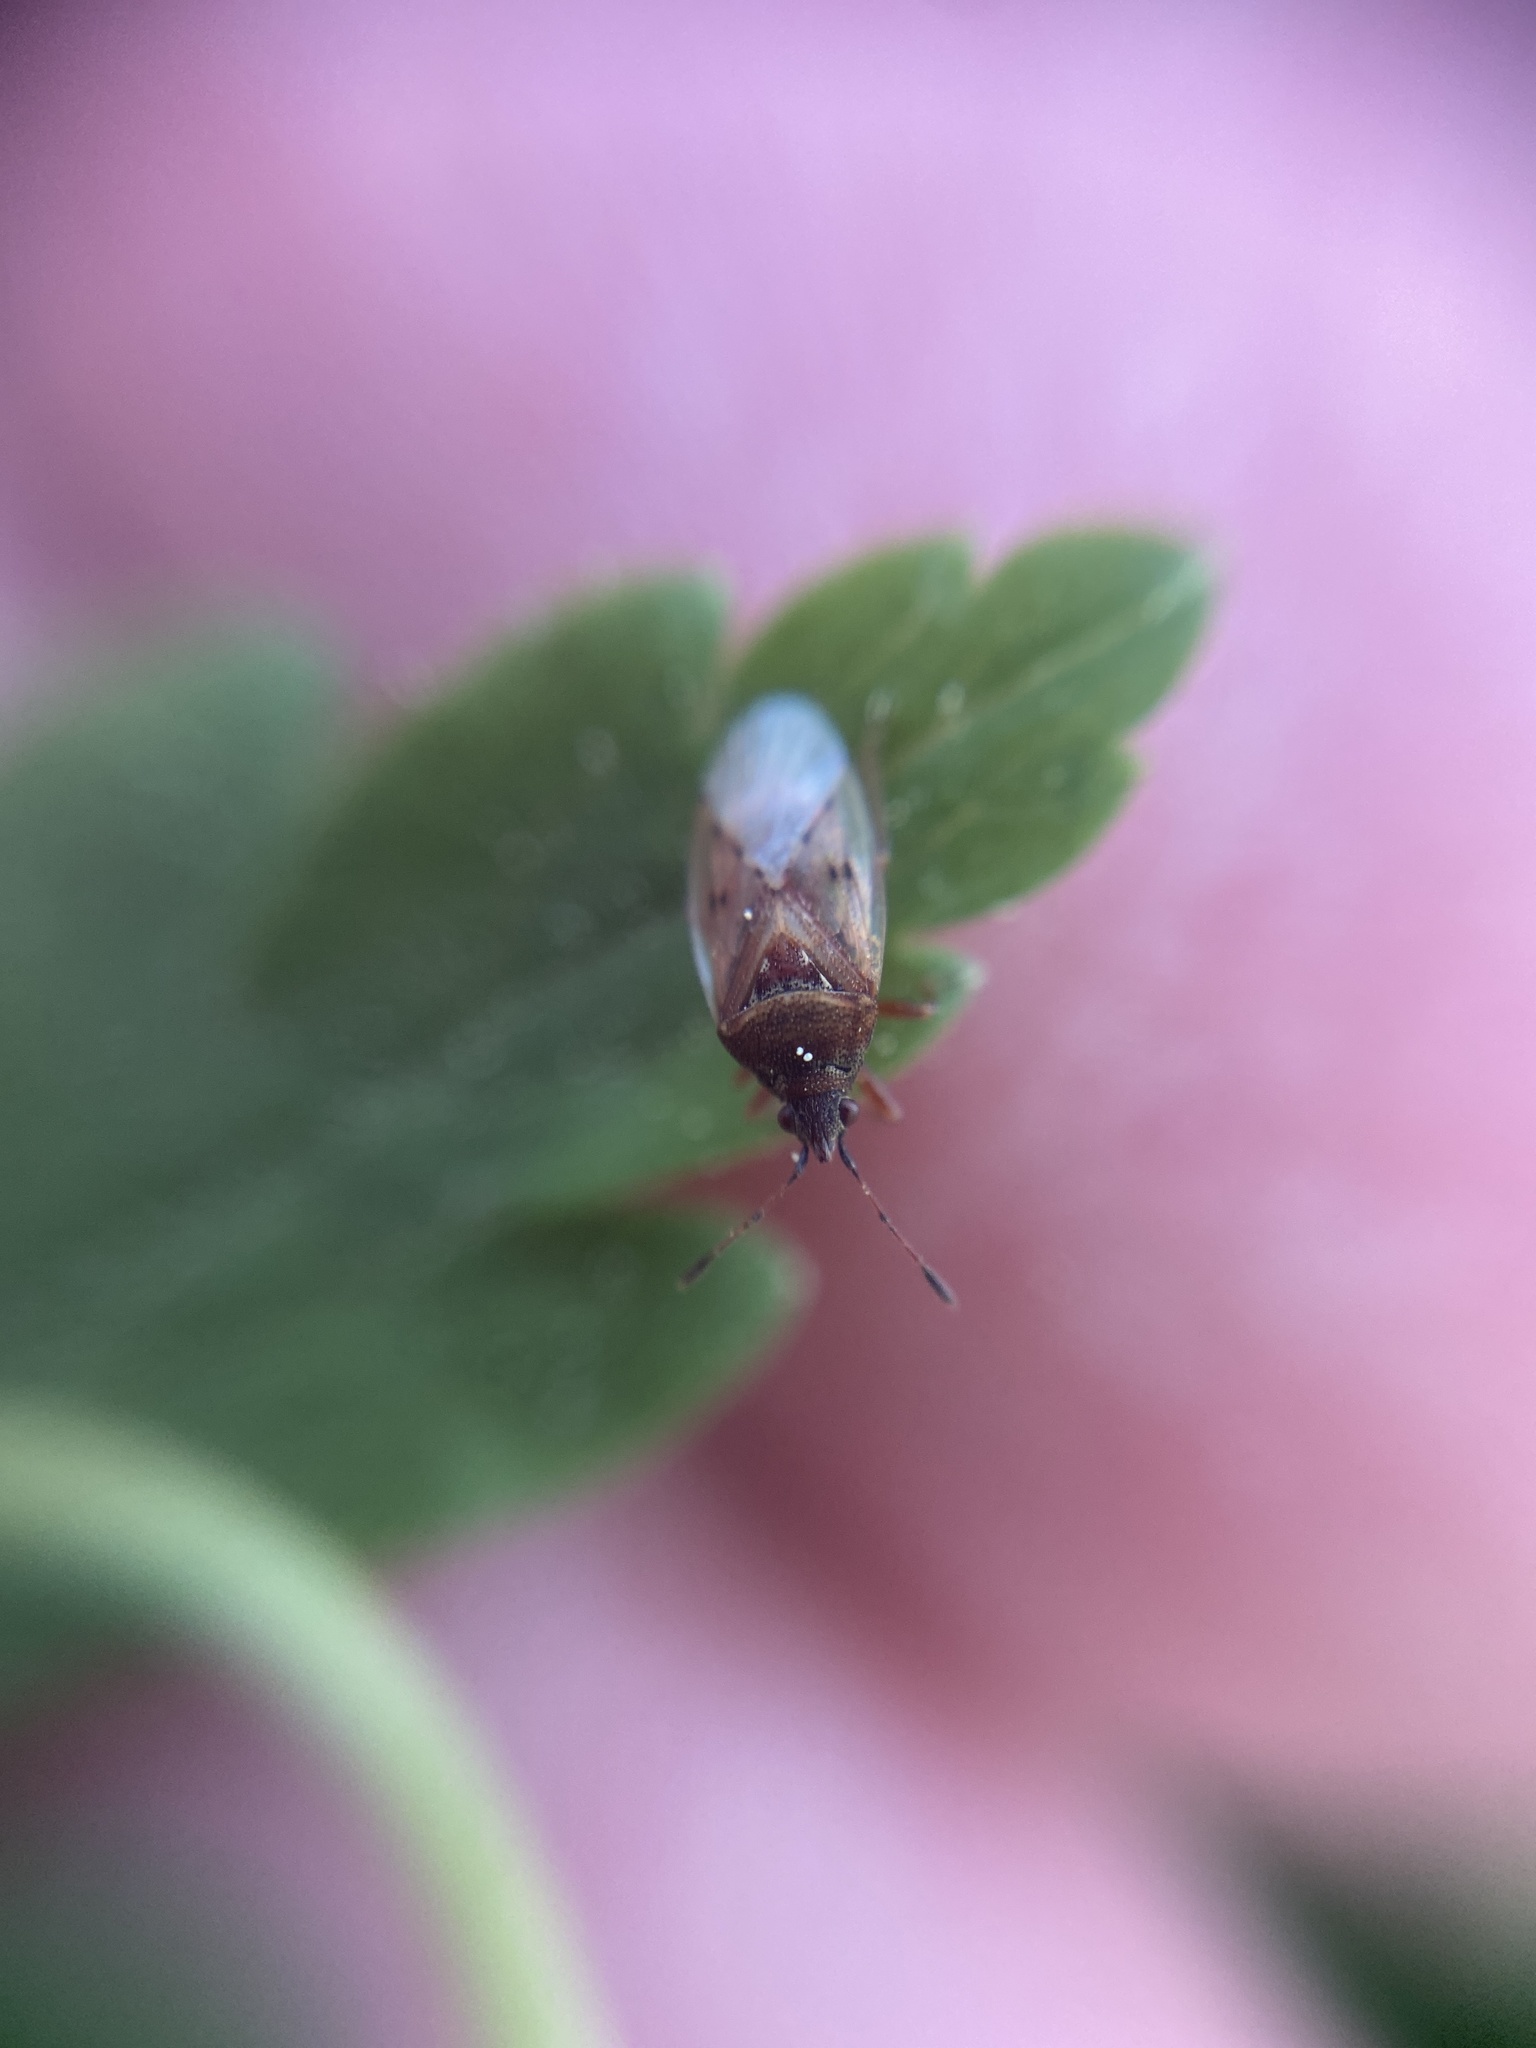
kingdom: Animalia
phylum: Arthropoda
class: Insecta
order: Hemiptera
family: Lygaeidae
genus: Kleidocerys
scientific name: Kleidocerys resedae
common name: Birch catkin bug
